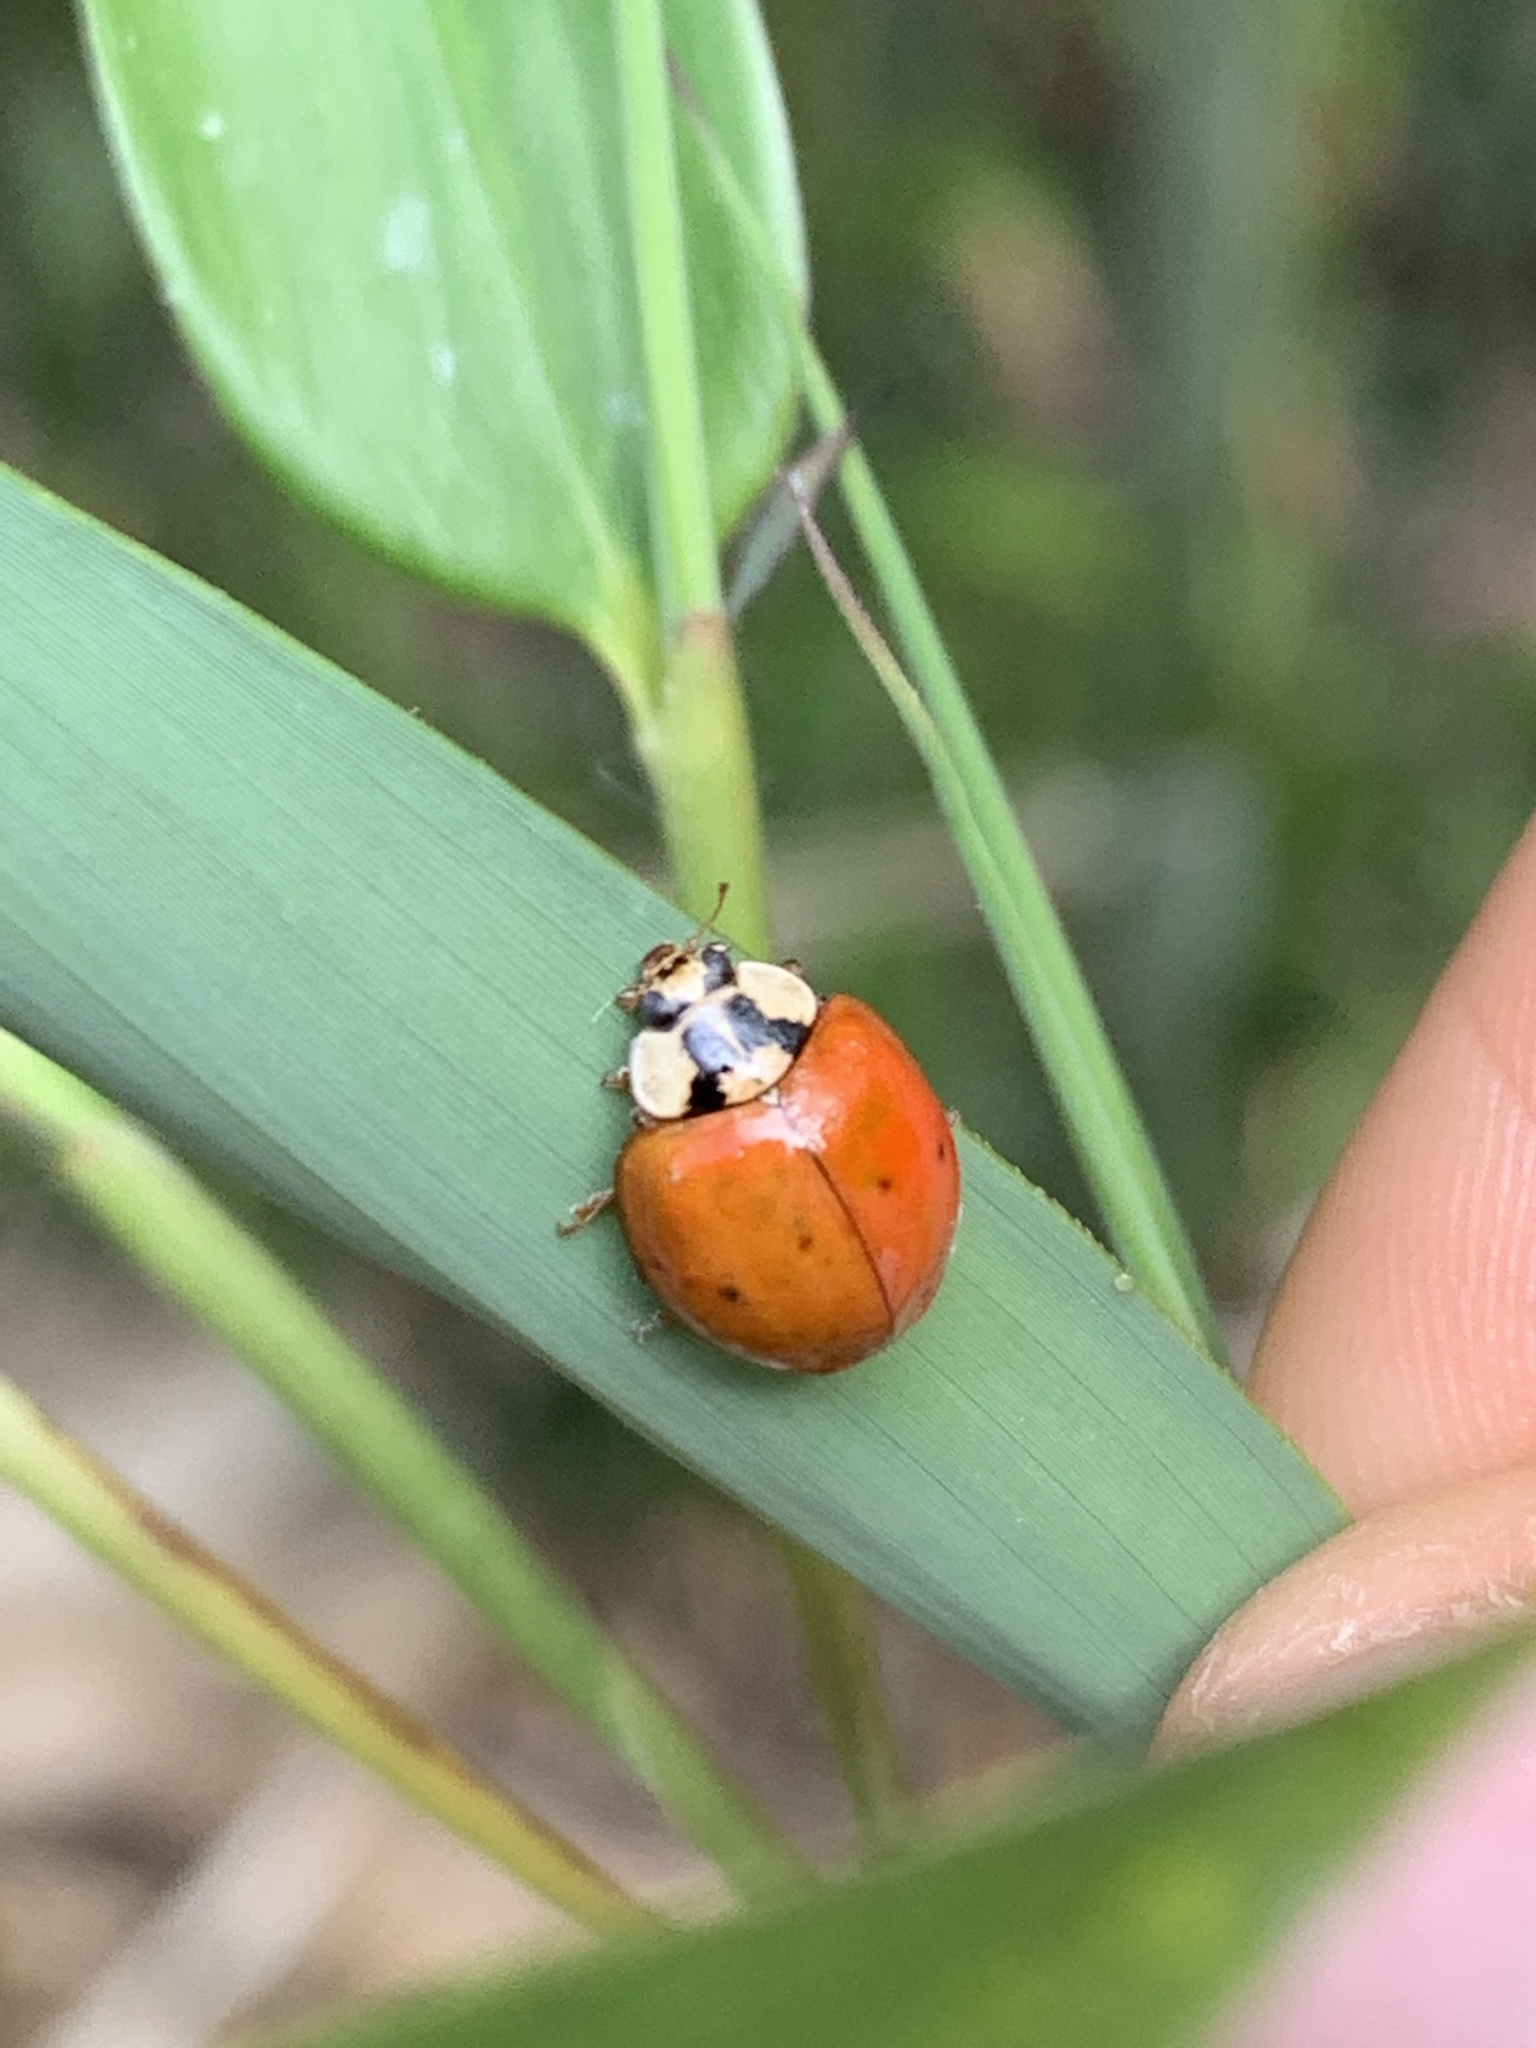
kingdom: Animalia
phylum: Arthropoda
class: Insecta
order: Coleoptera
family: Coccinellidae
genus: Harmonia
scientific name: Harmonia axyridis
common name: Harlequin ladybird
